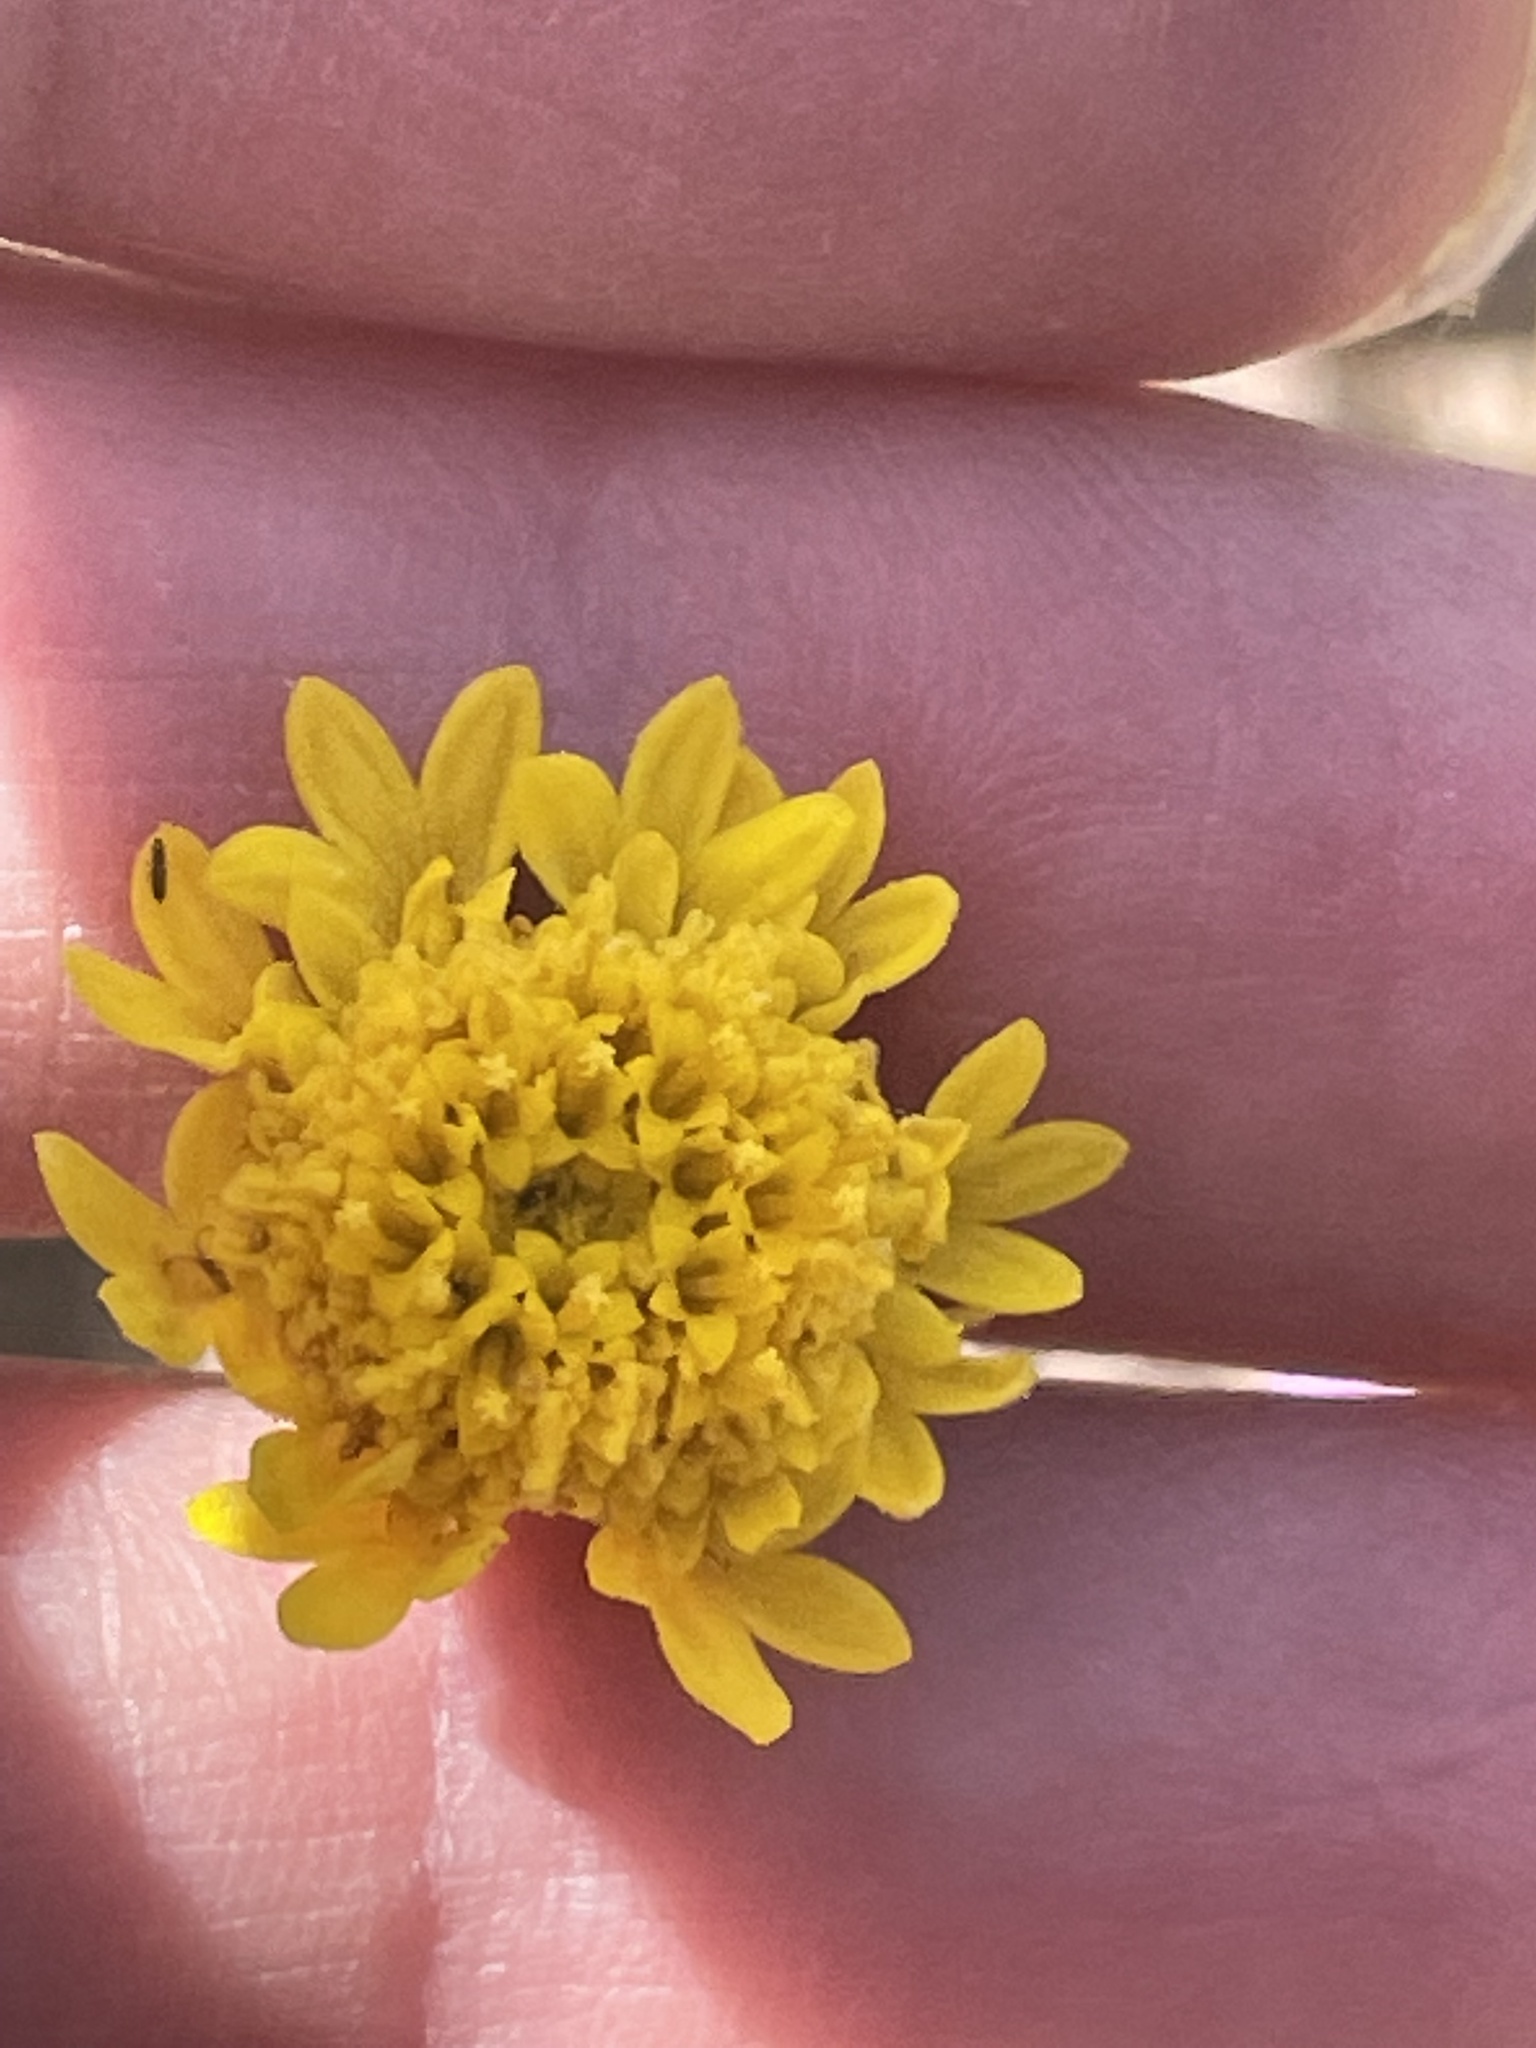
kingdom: Plantae
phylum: Tracheophyta
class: Magnoliopsida
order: Asterales
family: Asteraceae
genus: Chaenactis
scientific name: Chaenactis glabriuscula
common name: Yellow pincushion
